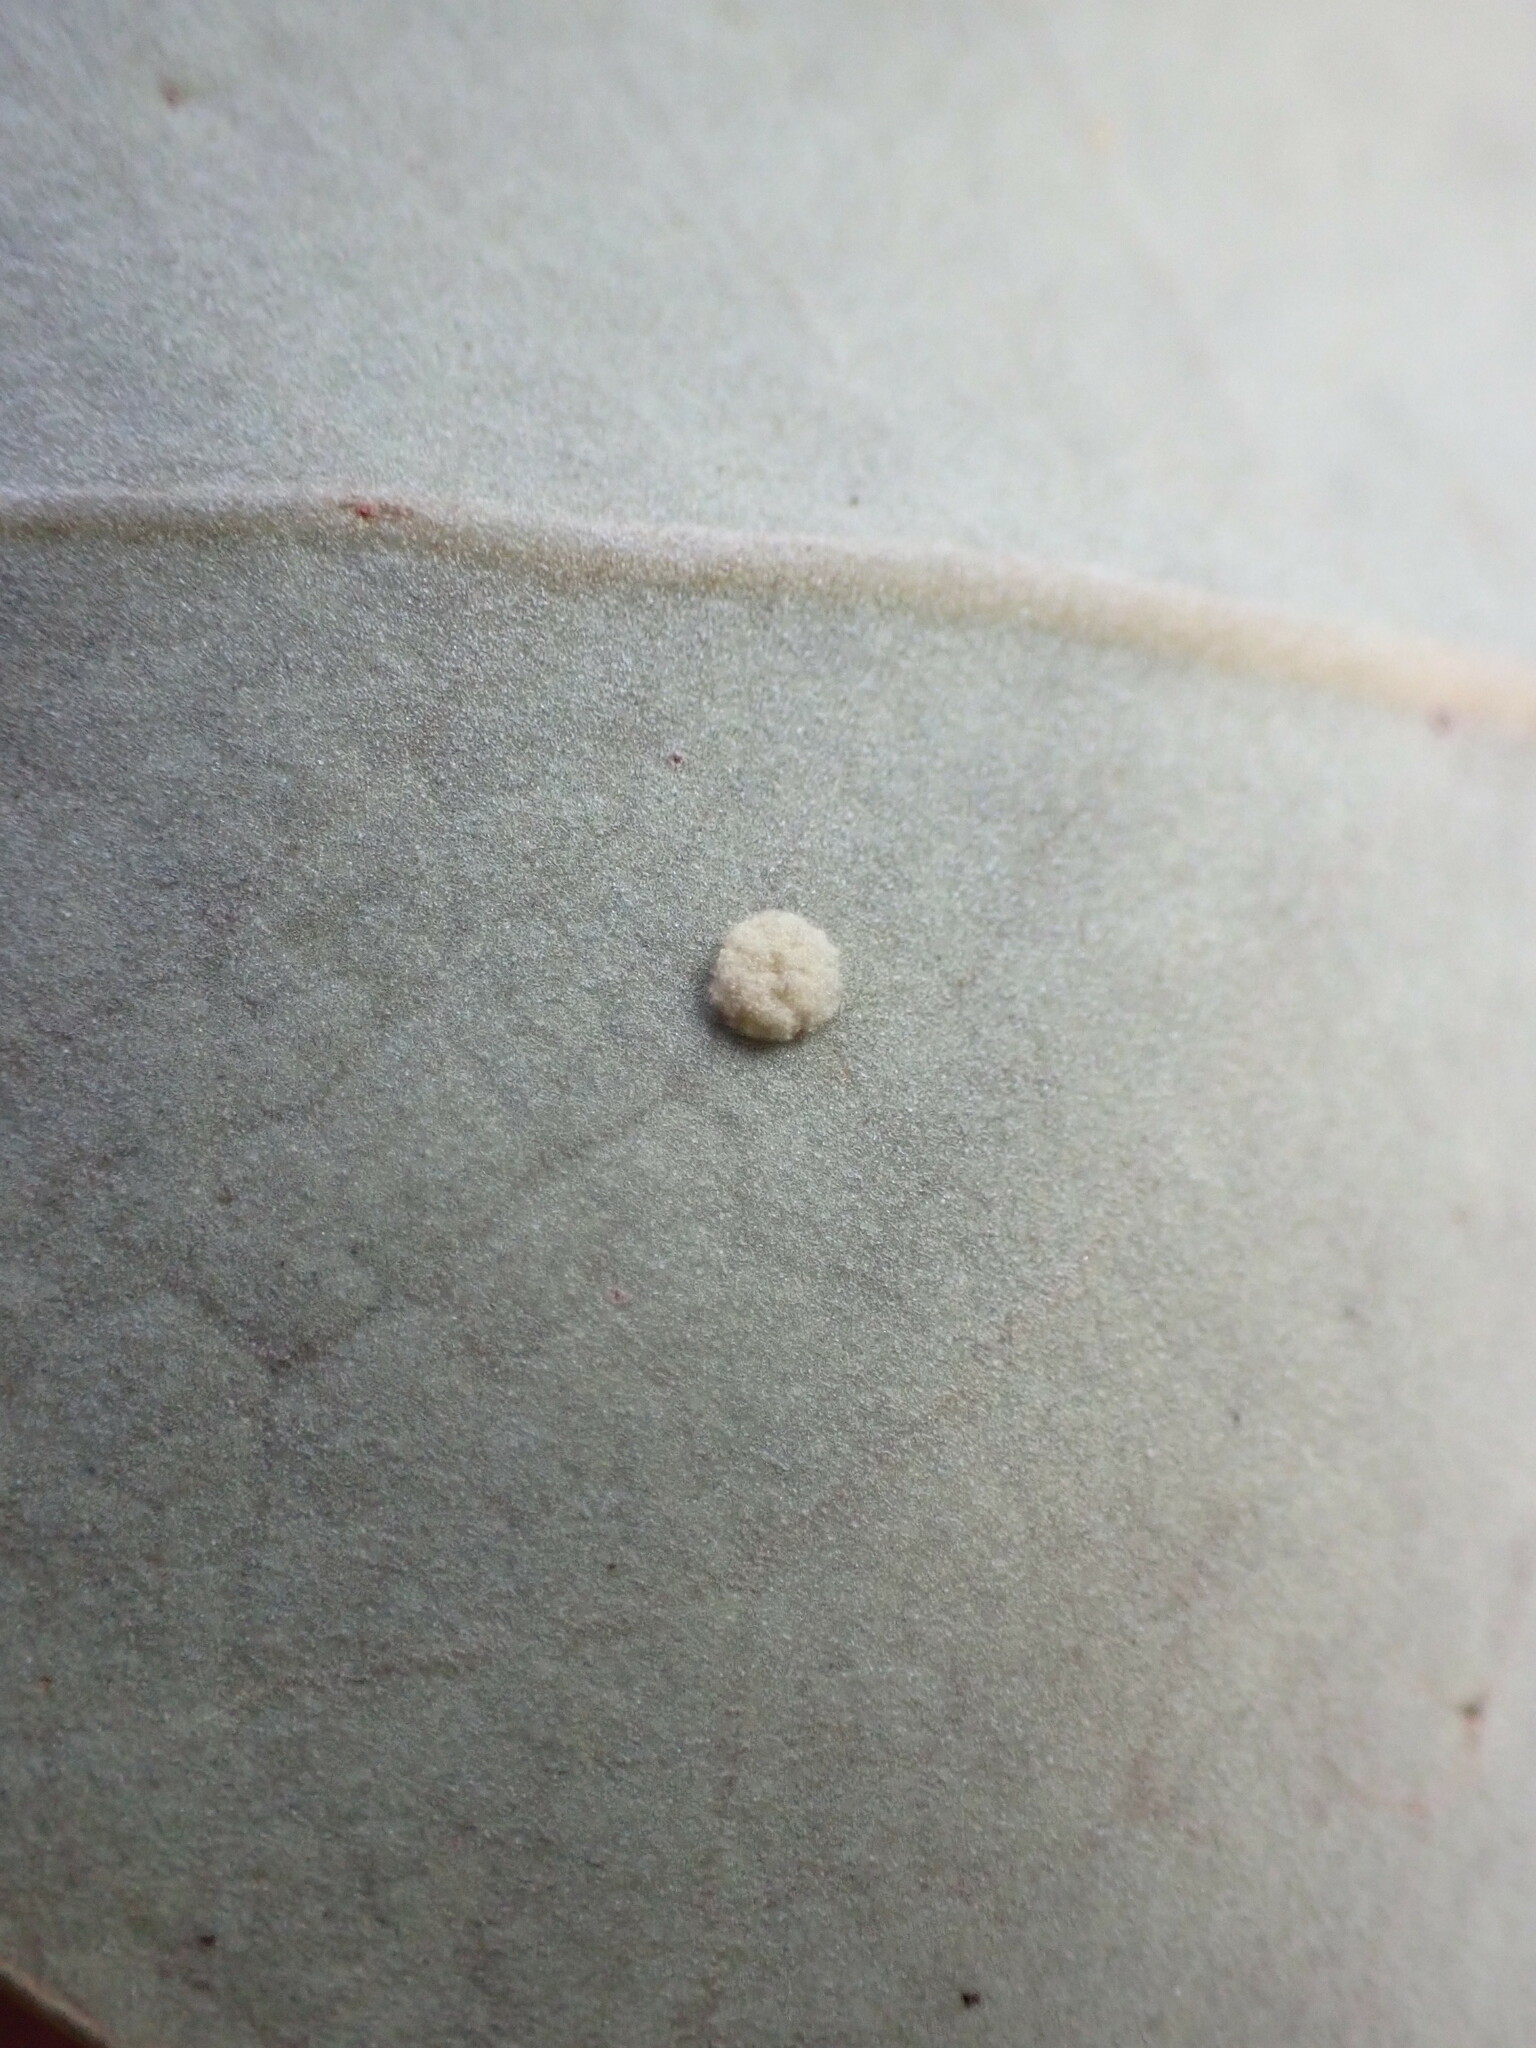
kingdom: Animalia
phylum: Arthropoda
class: Arachnida
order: Trombidiformes
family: Eriophyidae
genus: Acalitus
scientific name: Acalitus
